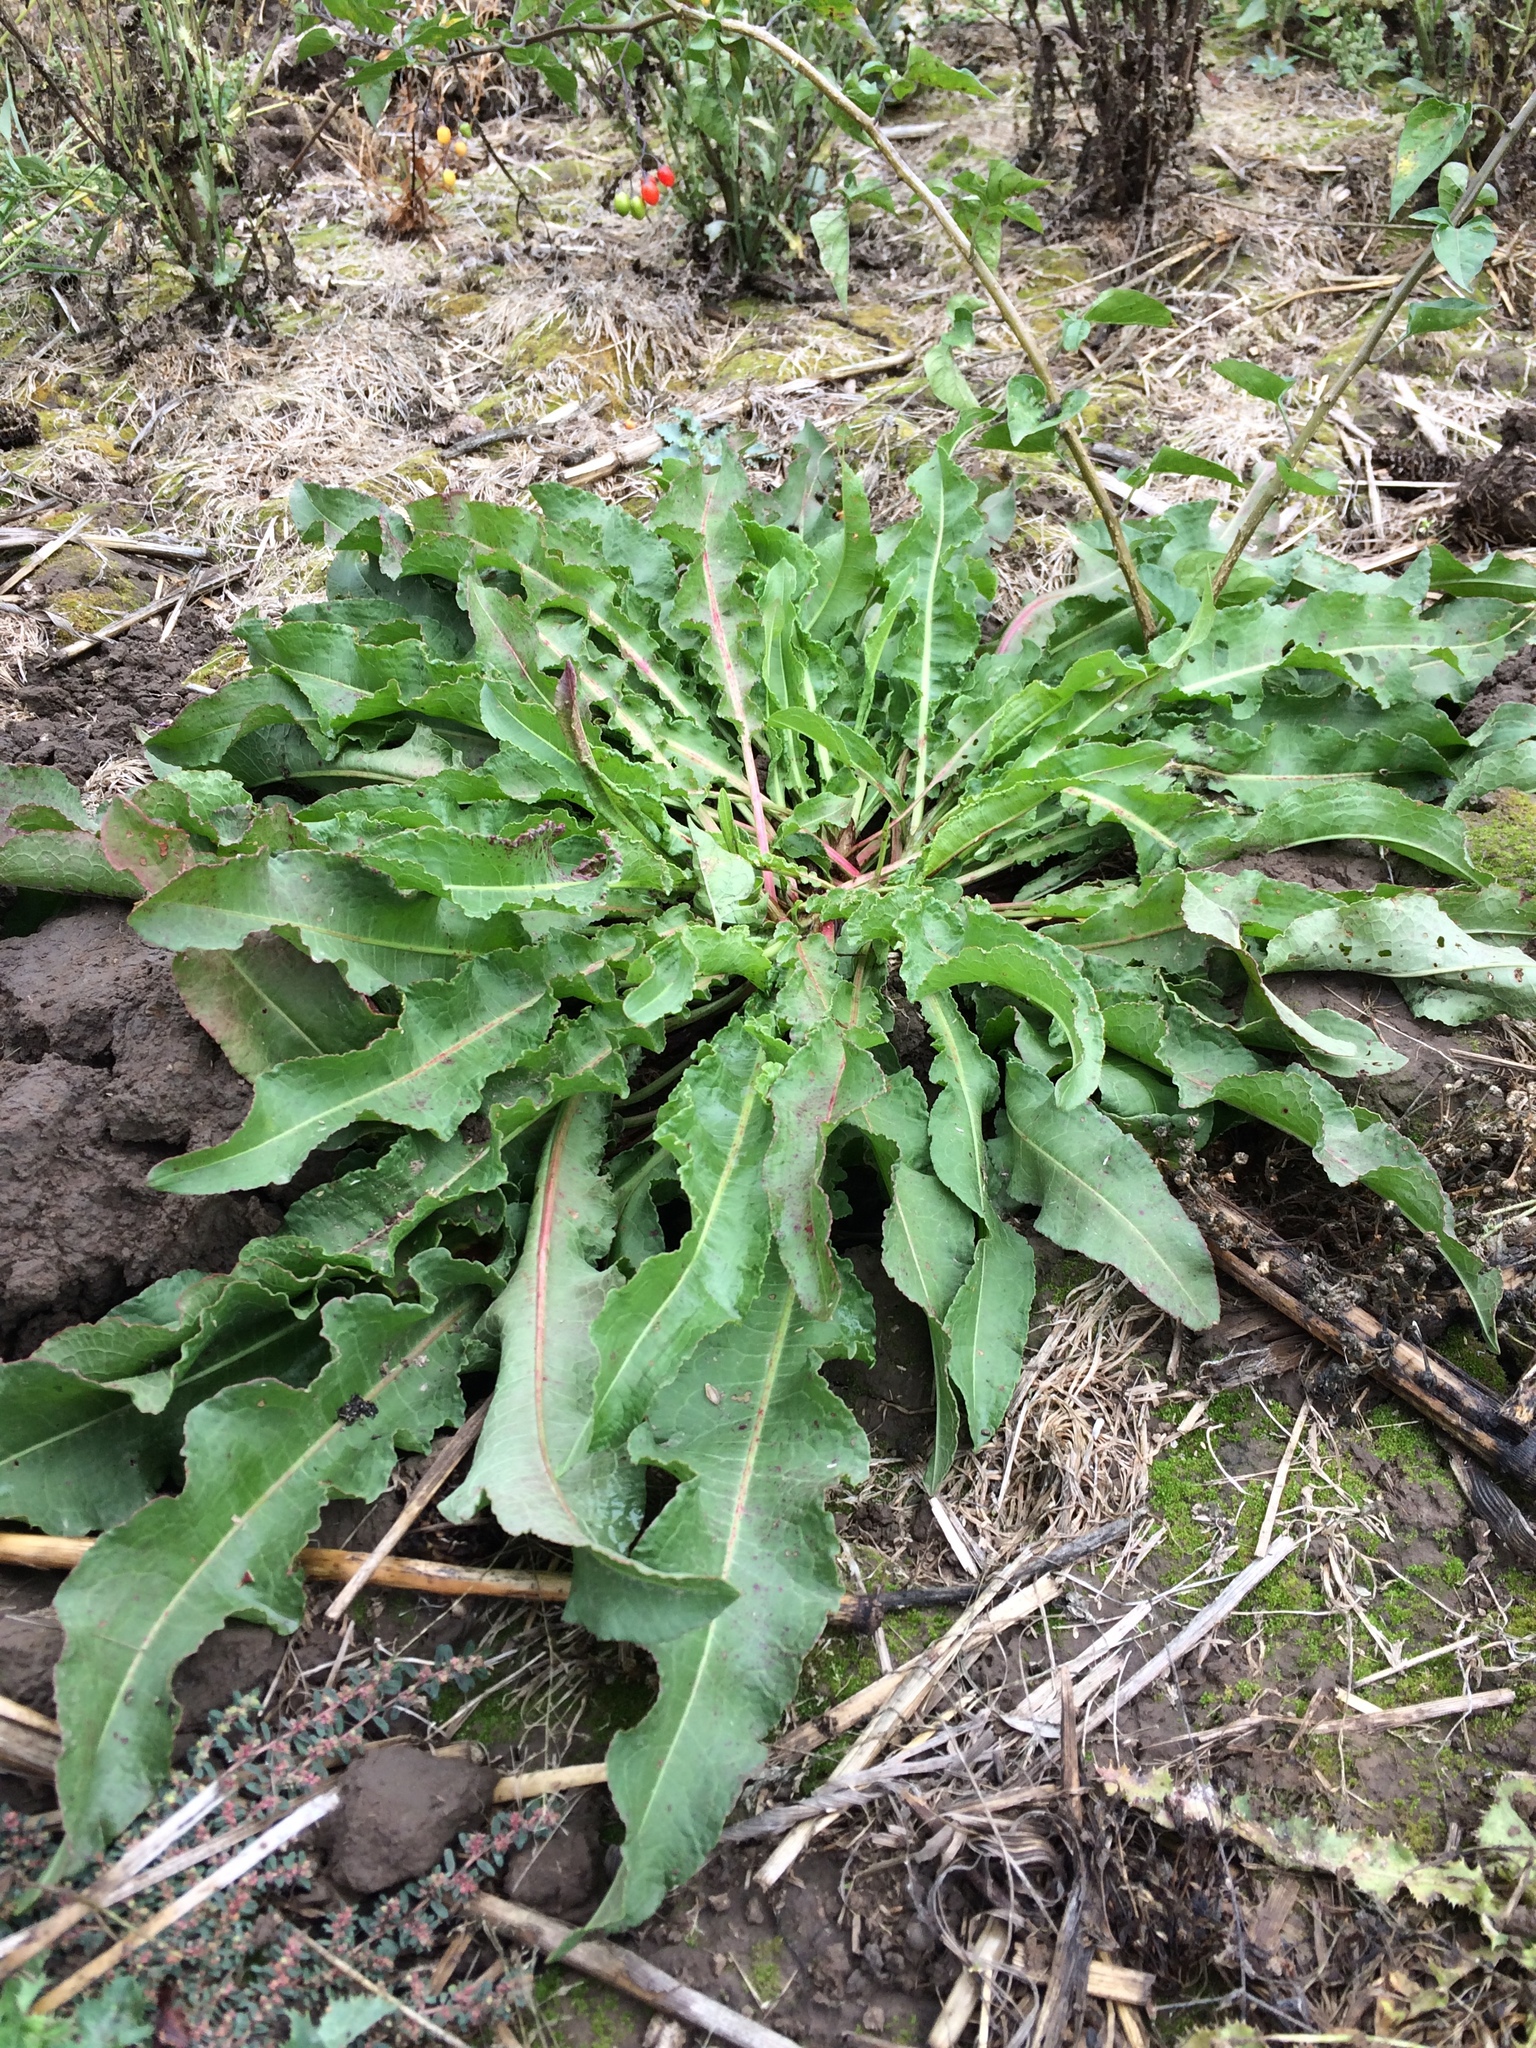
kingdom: Plantae
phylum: Tracheophyta
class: Magnoliopsida
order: Caryophyllales
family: Polygonaceae
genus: Rumex
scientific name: Rumex crispus
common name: Curled dock
